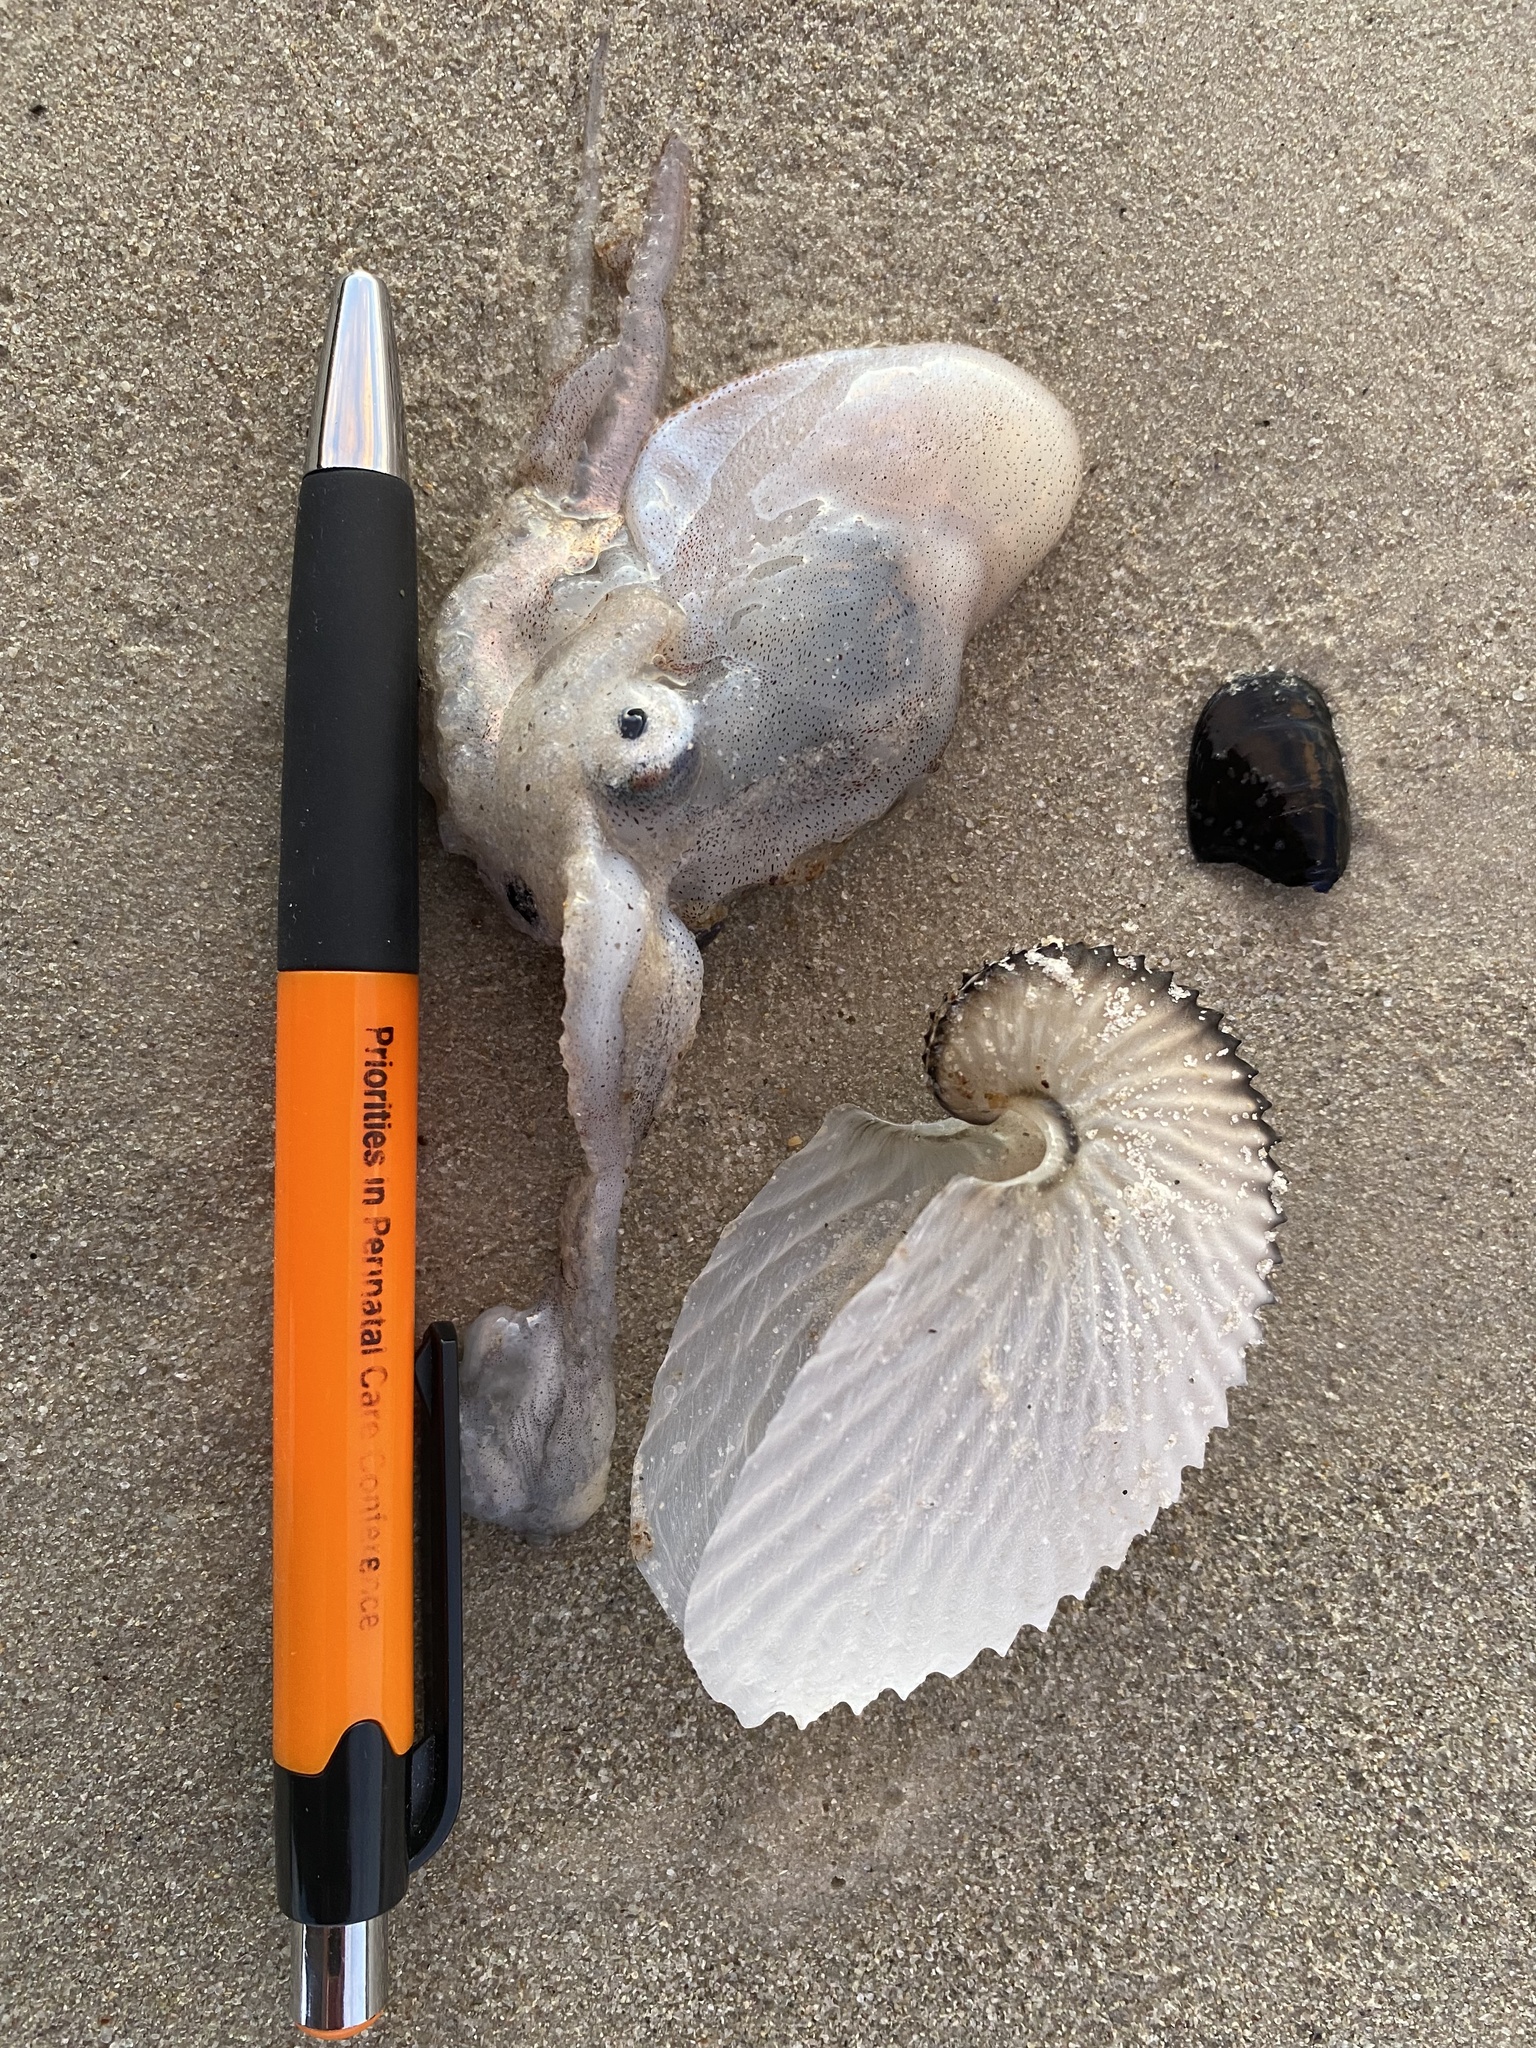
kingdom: Animalia
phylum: Mollusca
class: Cephalopoda
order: Octopoda
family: Argonautidae
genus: Argonauta
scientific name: Argonauta argo
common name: Common paper nautilus
